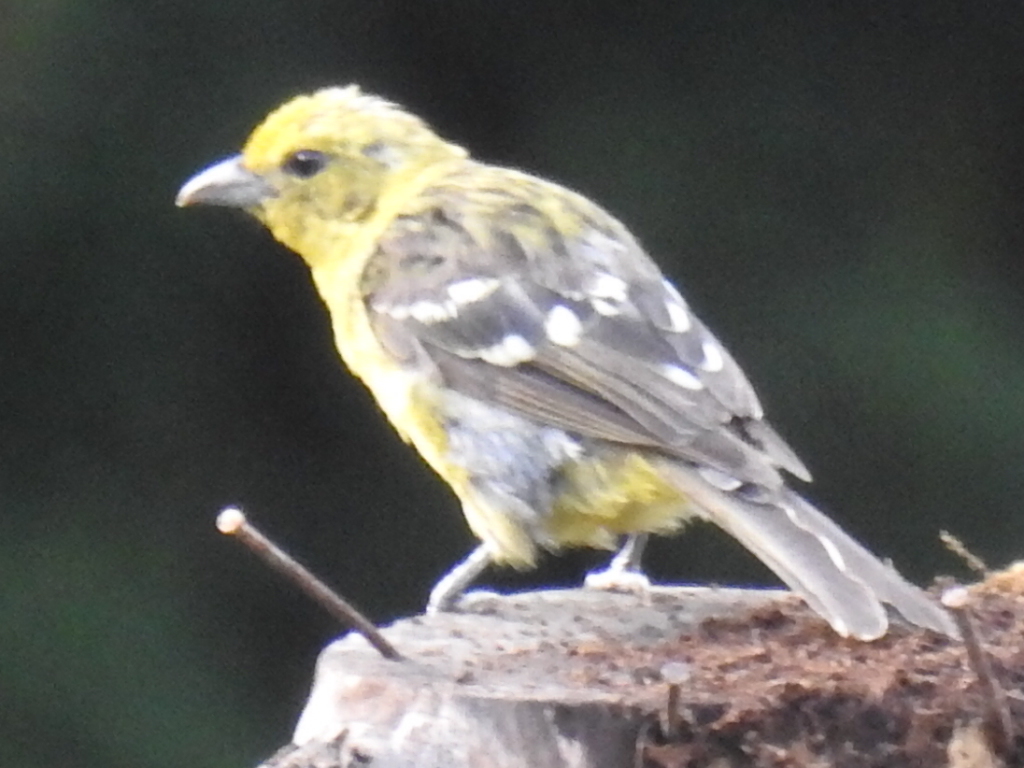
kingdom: Animalia
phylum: Chordata
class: Aves
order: Passeriformes
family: Cardinalidae
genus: Piranga
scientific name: Piranga bidentata
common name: Flame-colored tanager
